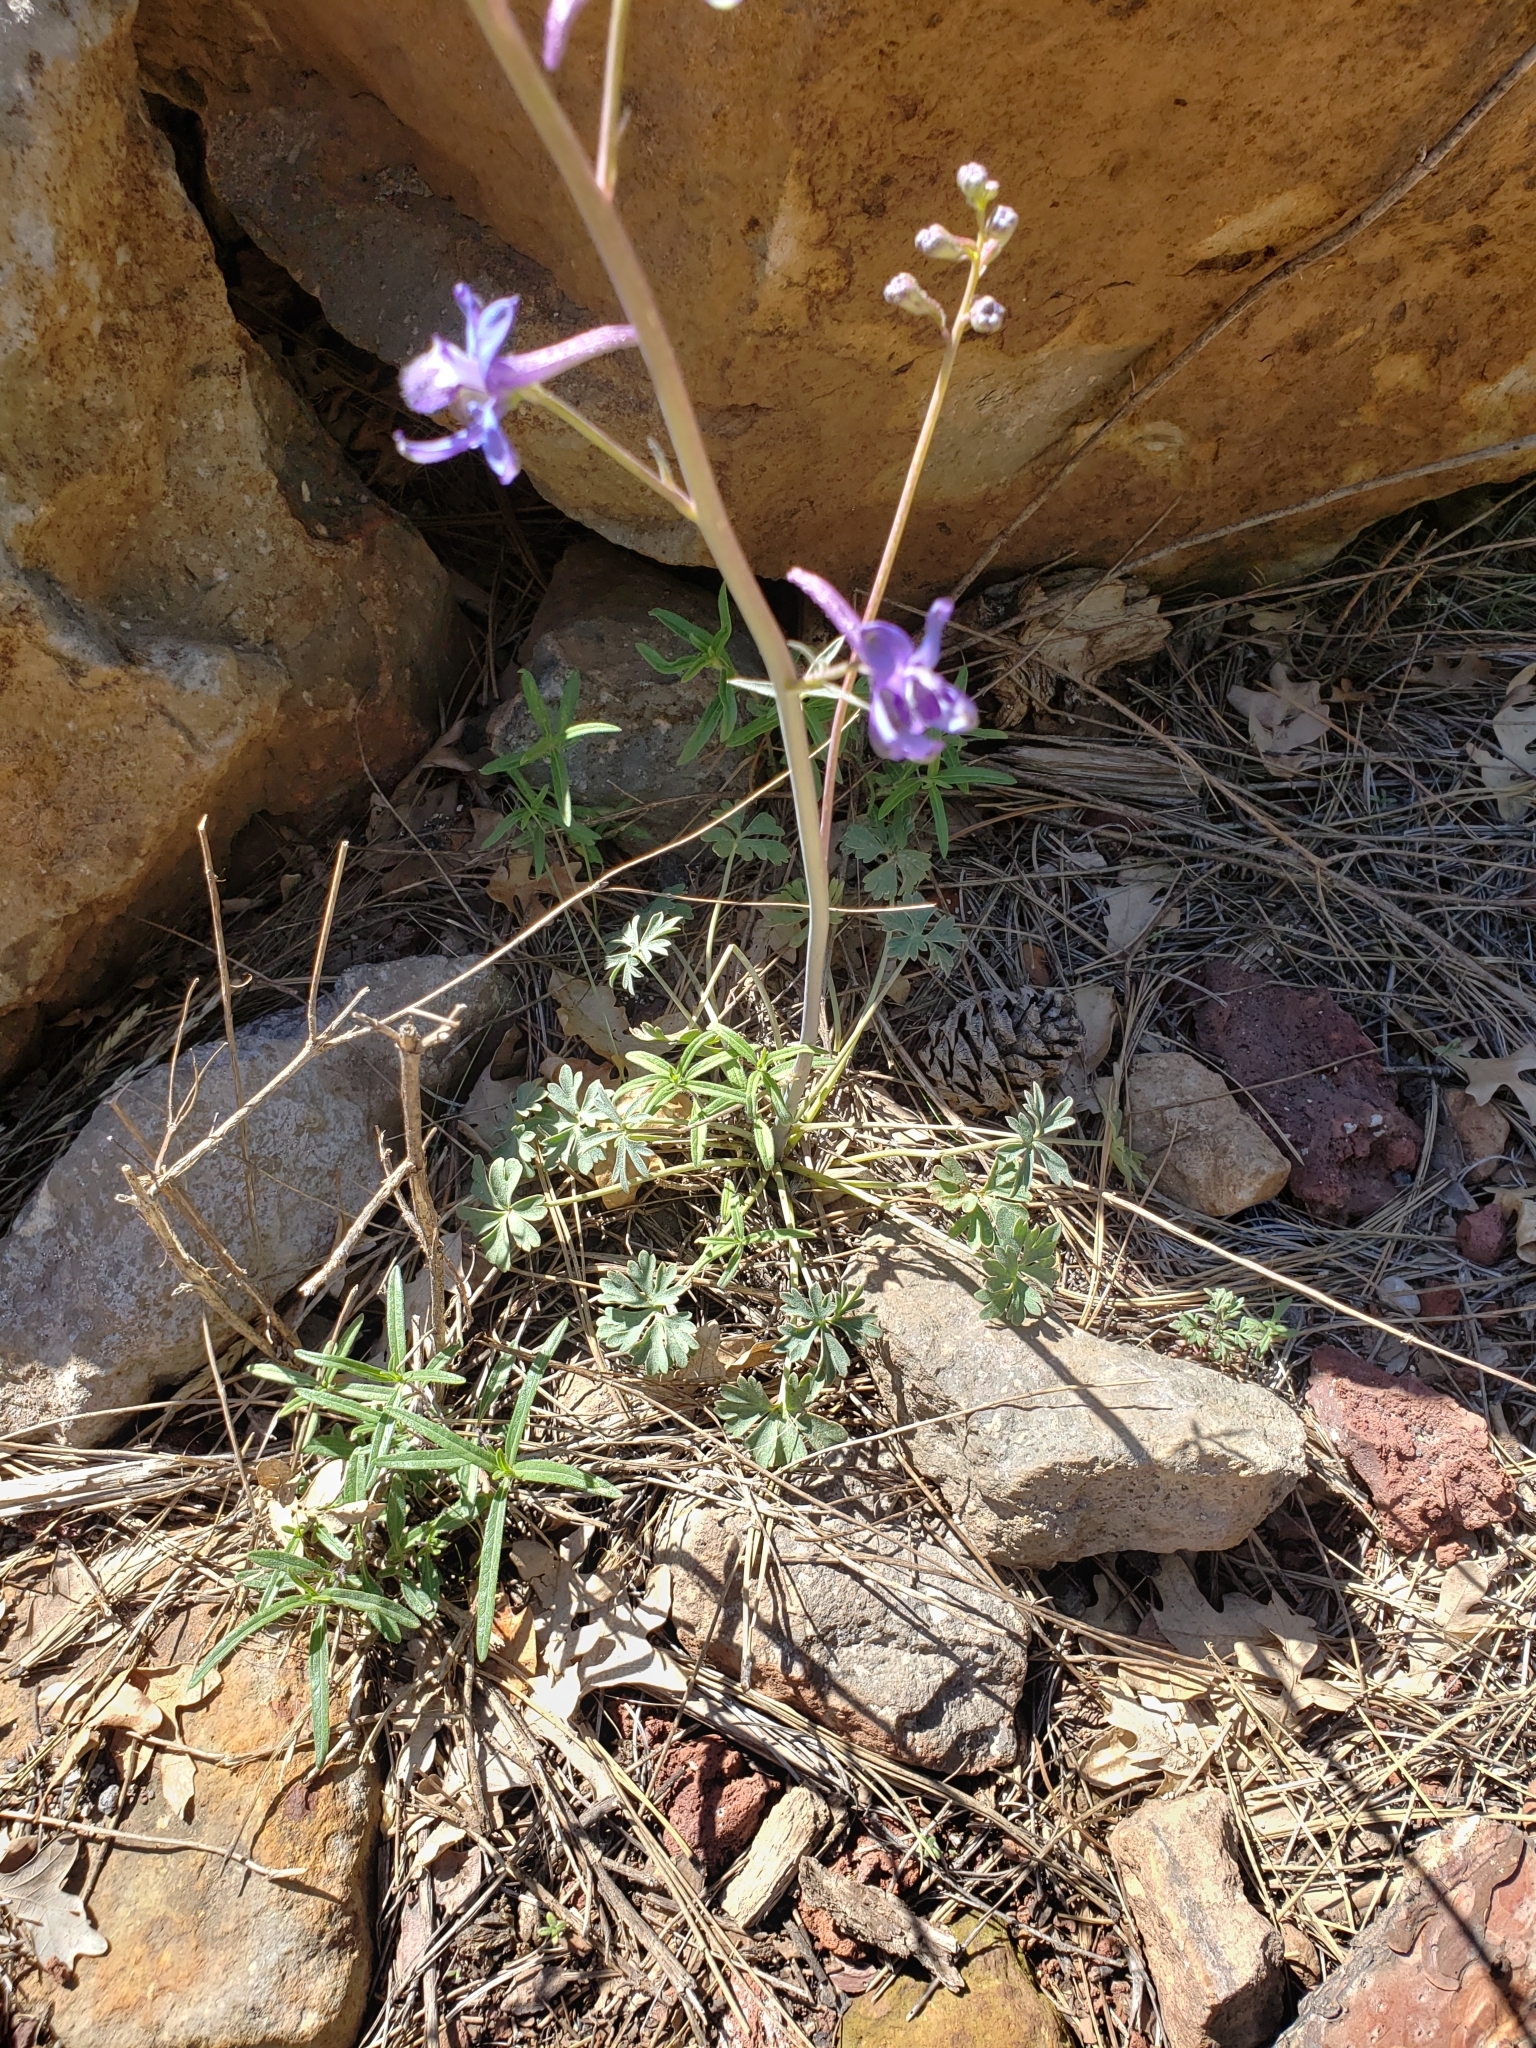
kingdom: Plantae
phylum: Tracheophyta
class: Magnoliopsida
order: Ranunculales
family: Ranunculaceae
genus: Delphinium
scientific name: Delphinium scaposum
